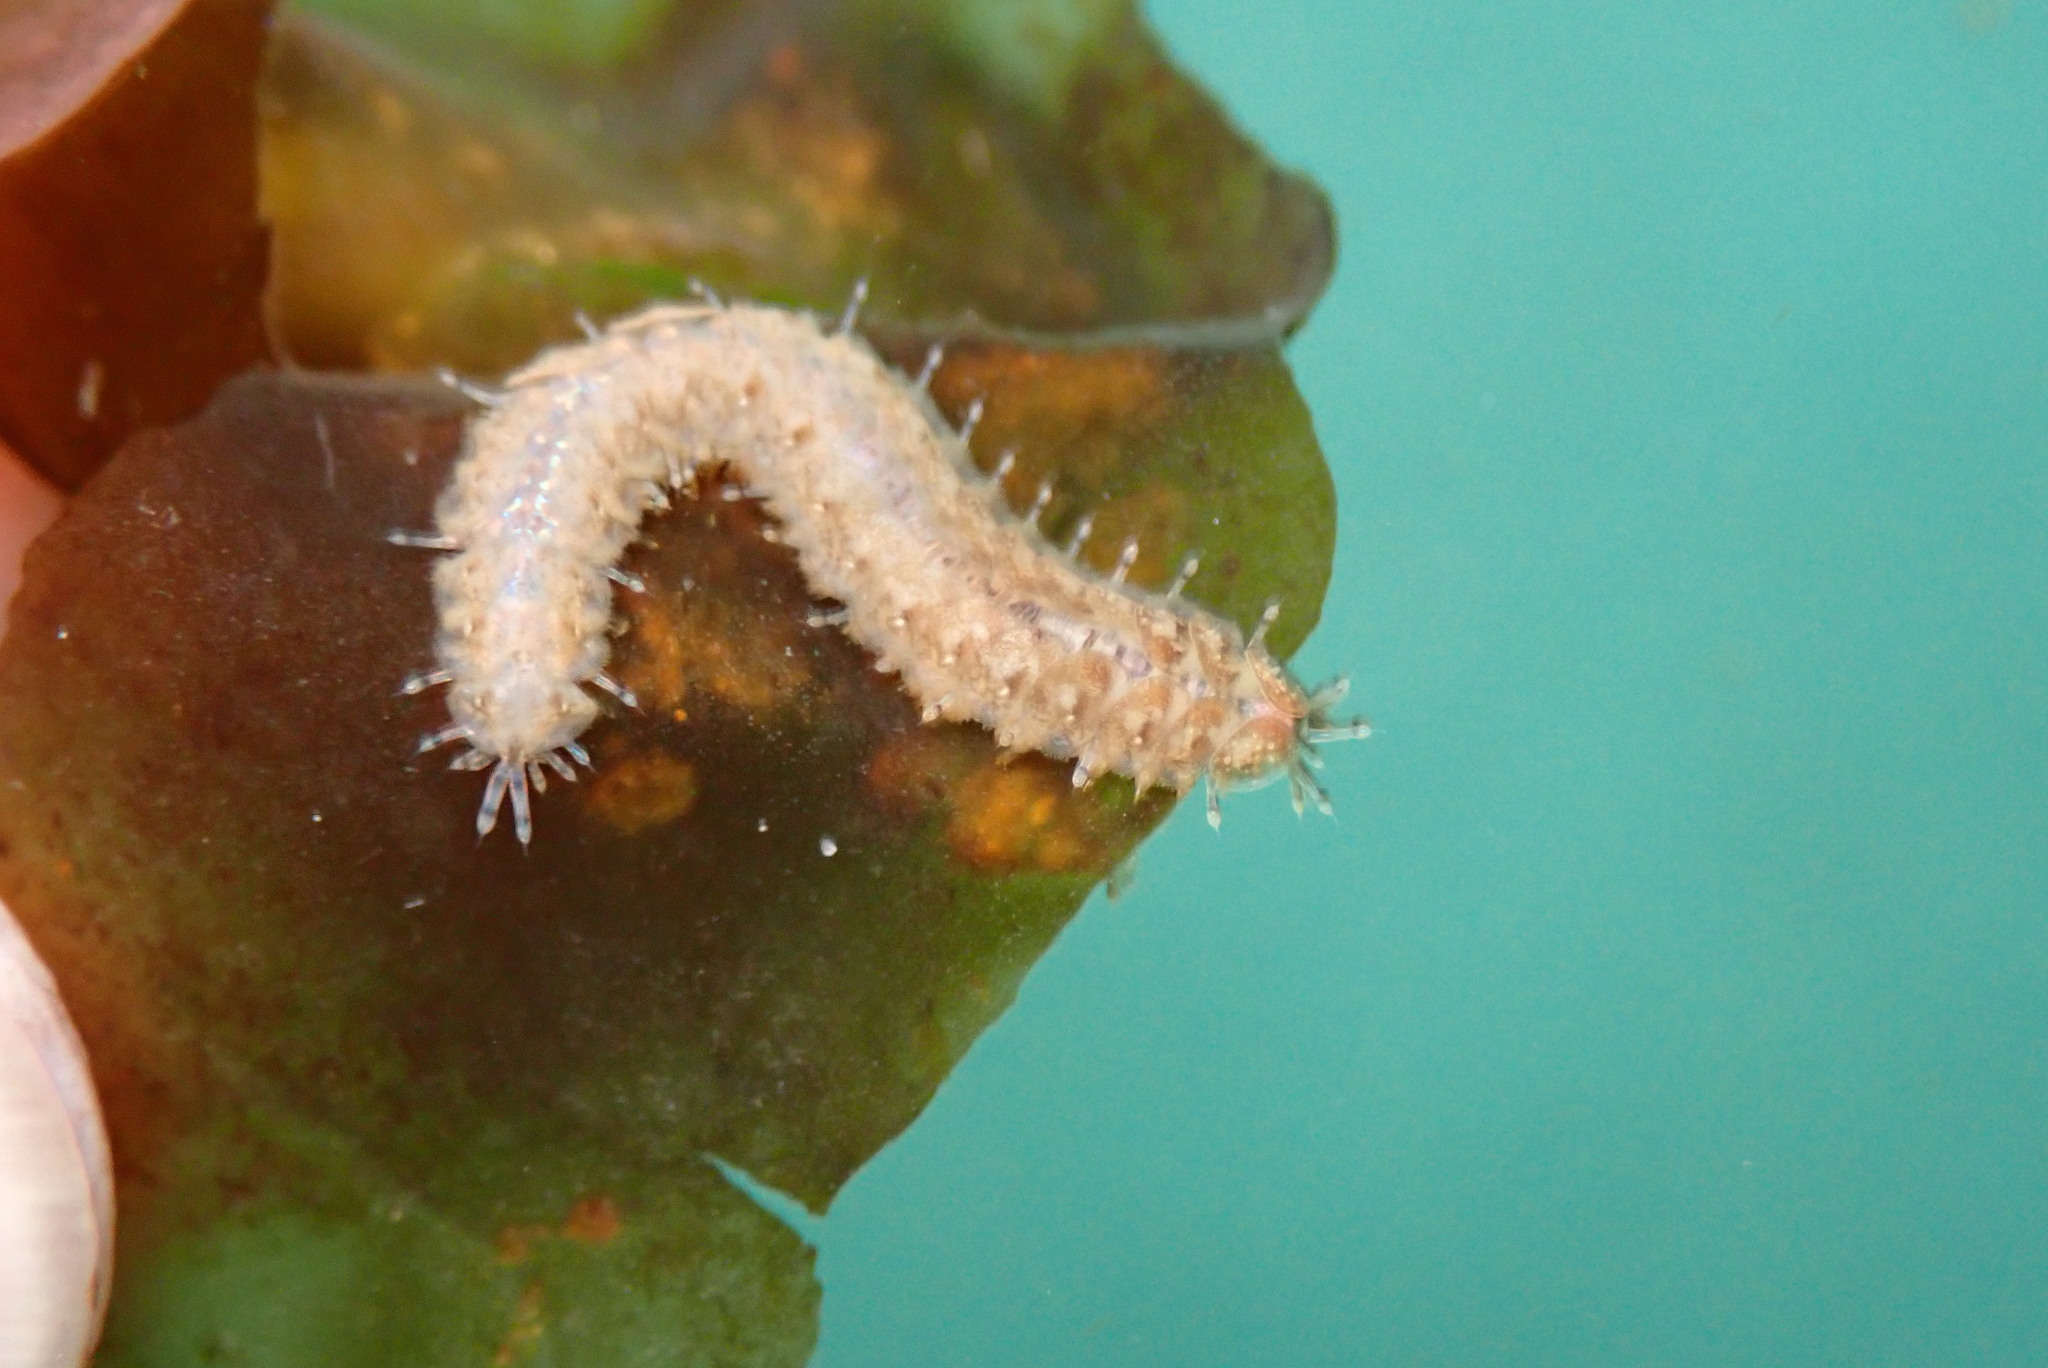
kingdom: Animalia
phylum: Annelida
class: Polychaeta
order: Phyllodocida
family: Polynoidae
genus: Halosydna
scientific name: Halosydna brevisetosa
